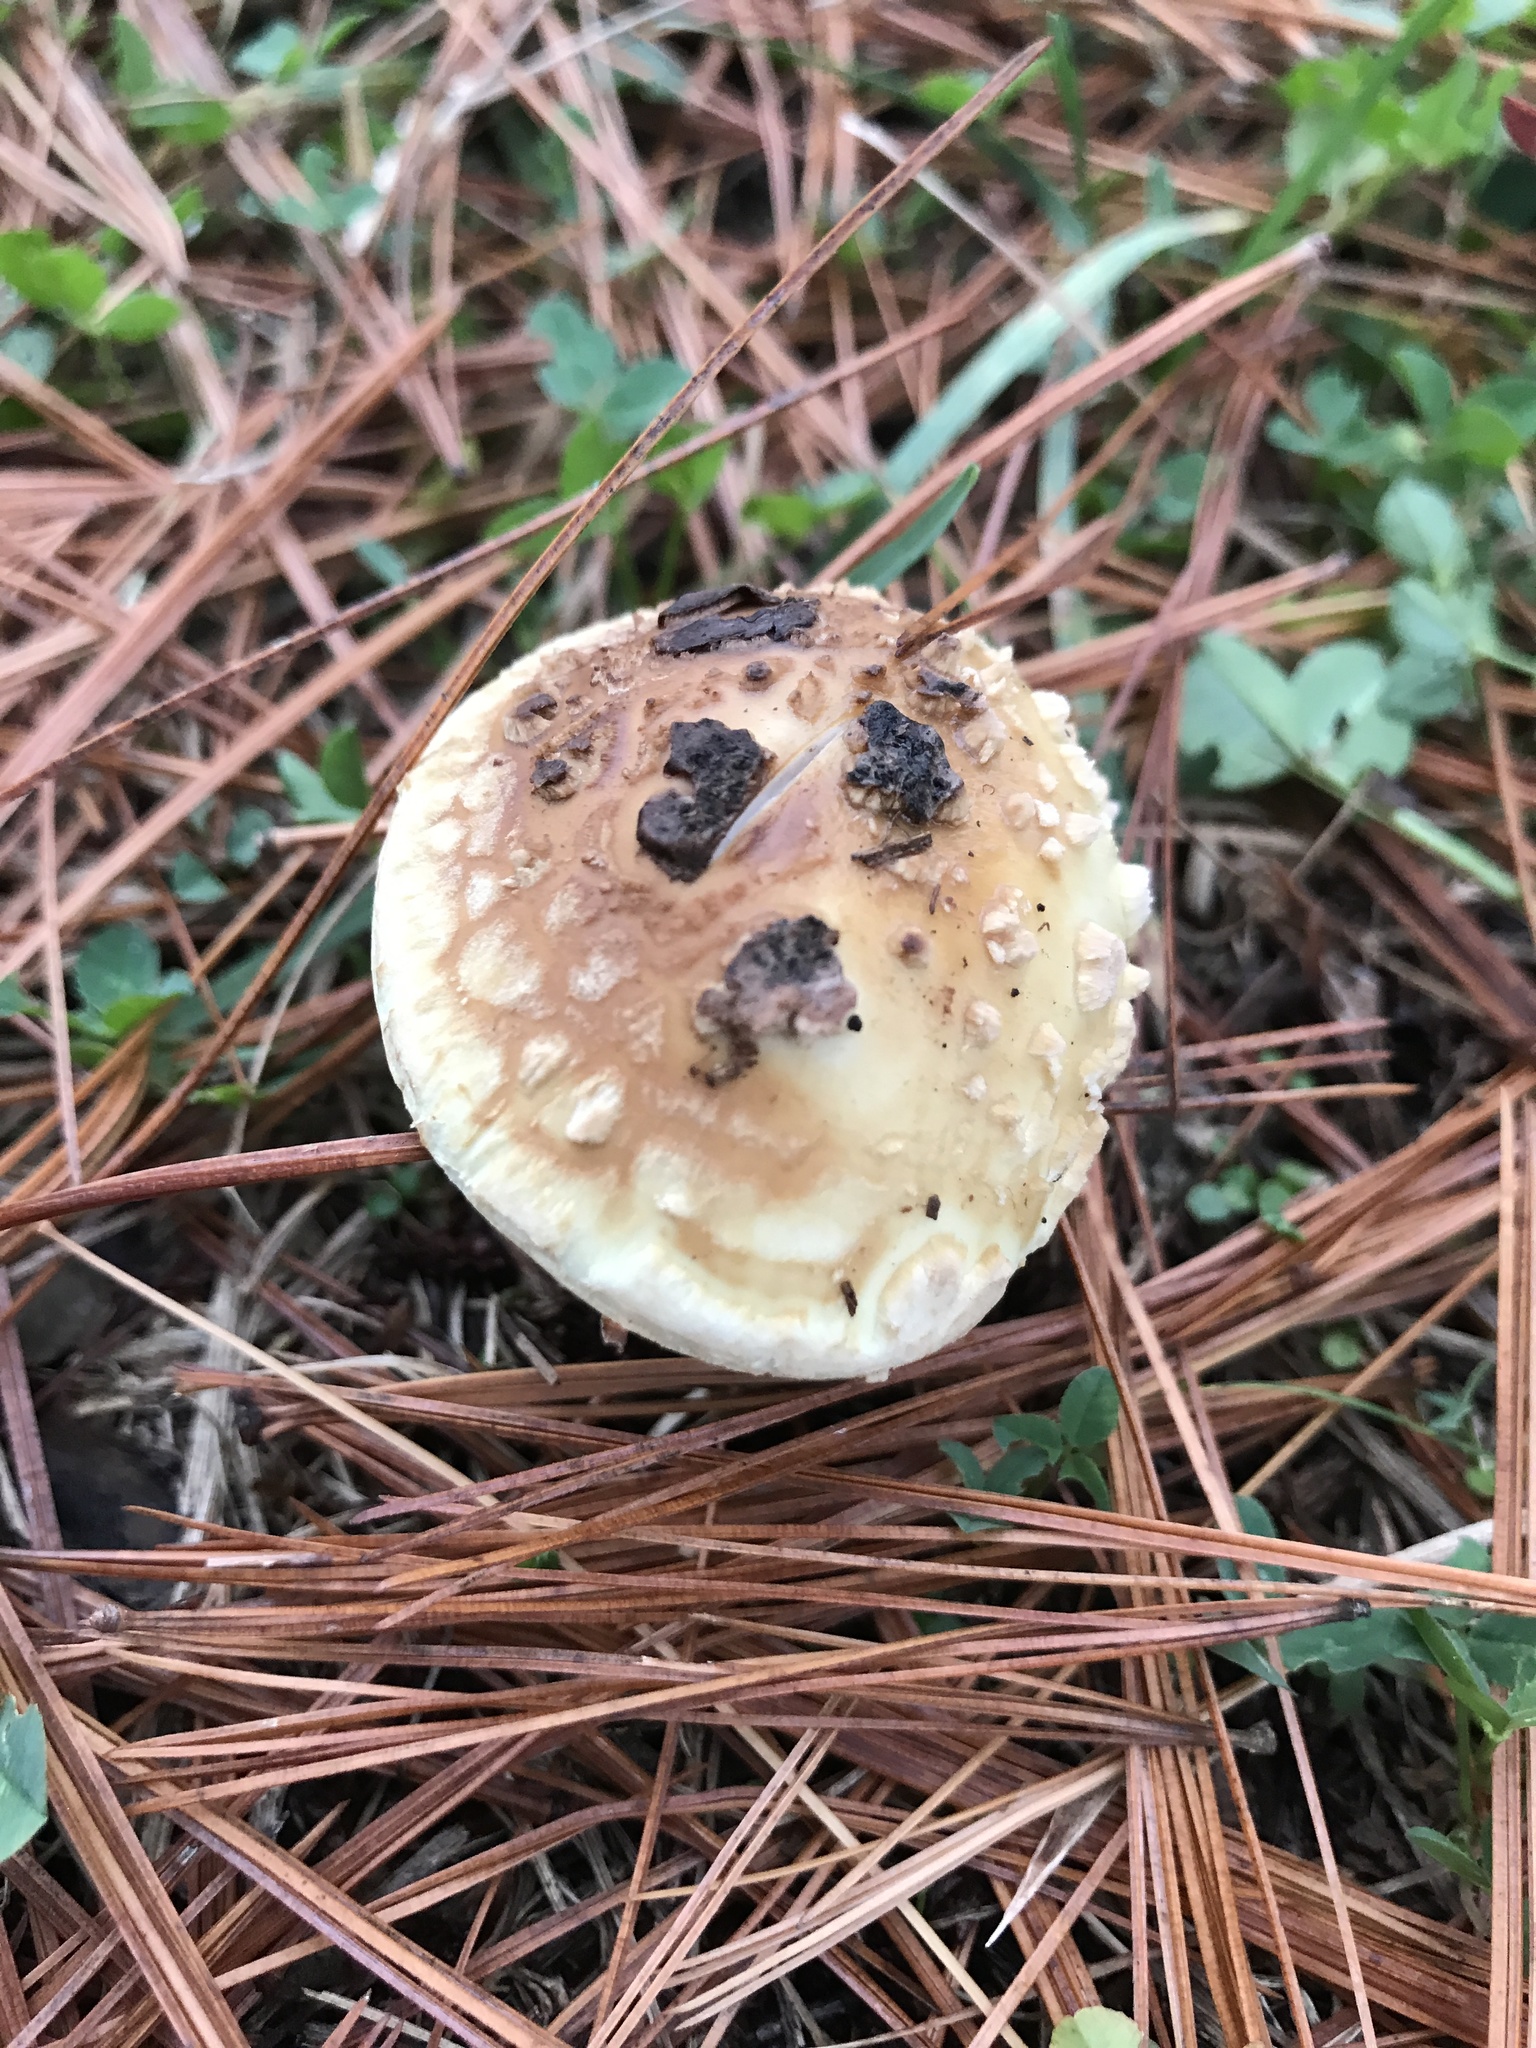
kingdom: Fungi
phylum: Basidiomycota
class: Agaricomycetes
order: Agaricales
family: Amanitaceae
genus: Amanita
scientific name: Amanita lavendula
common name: Coker's lavender staining amanita
